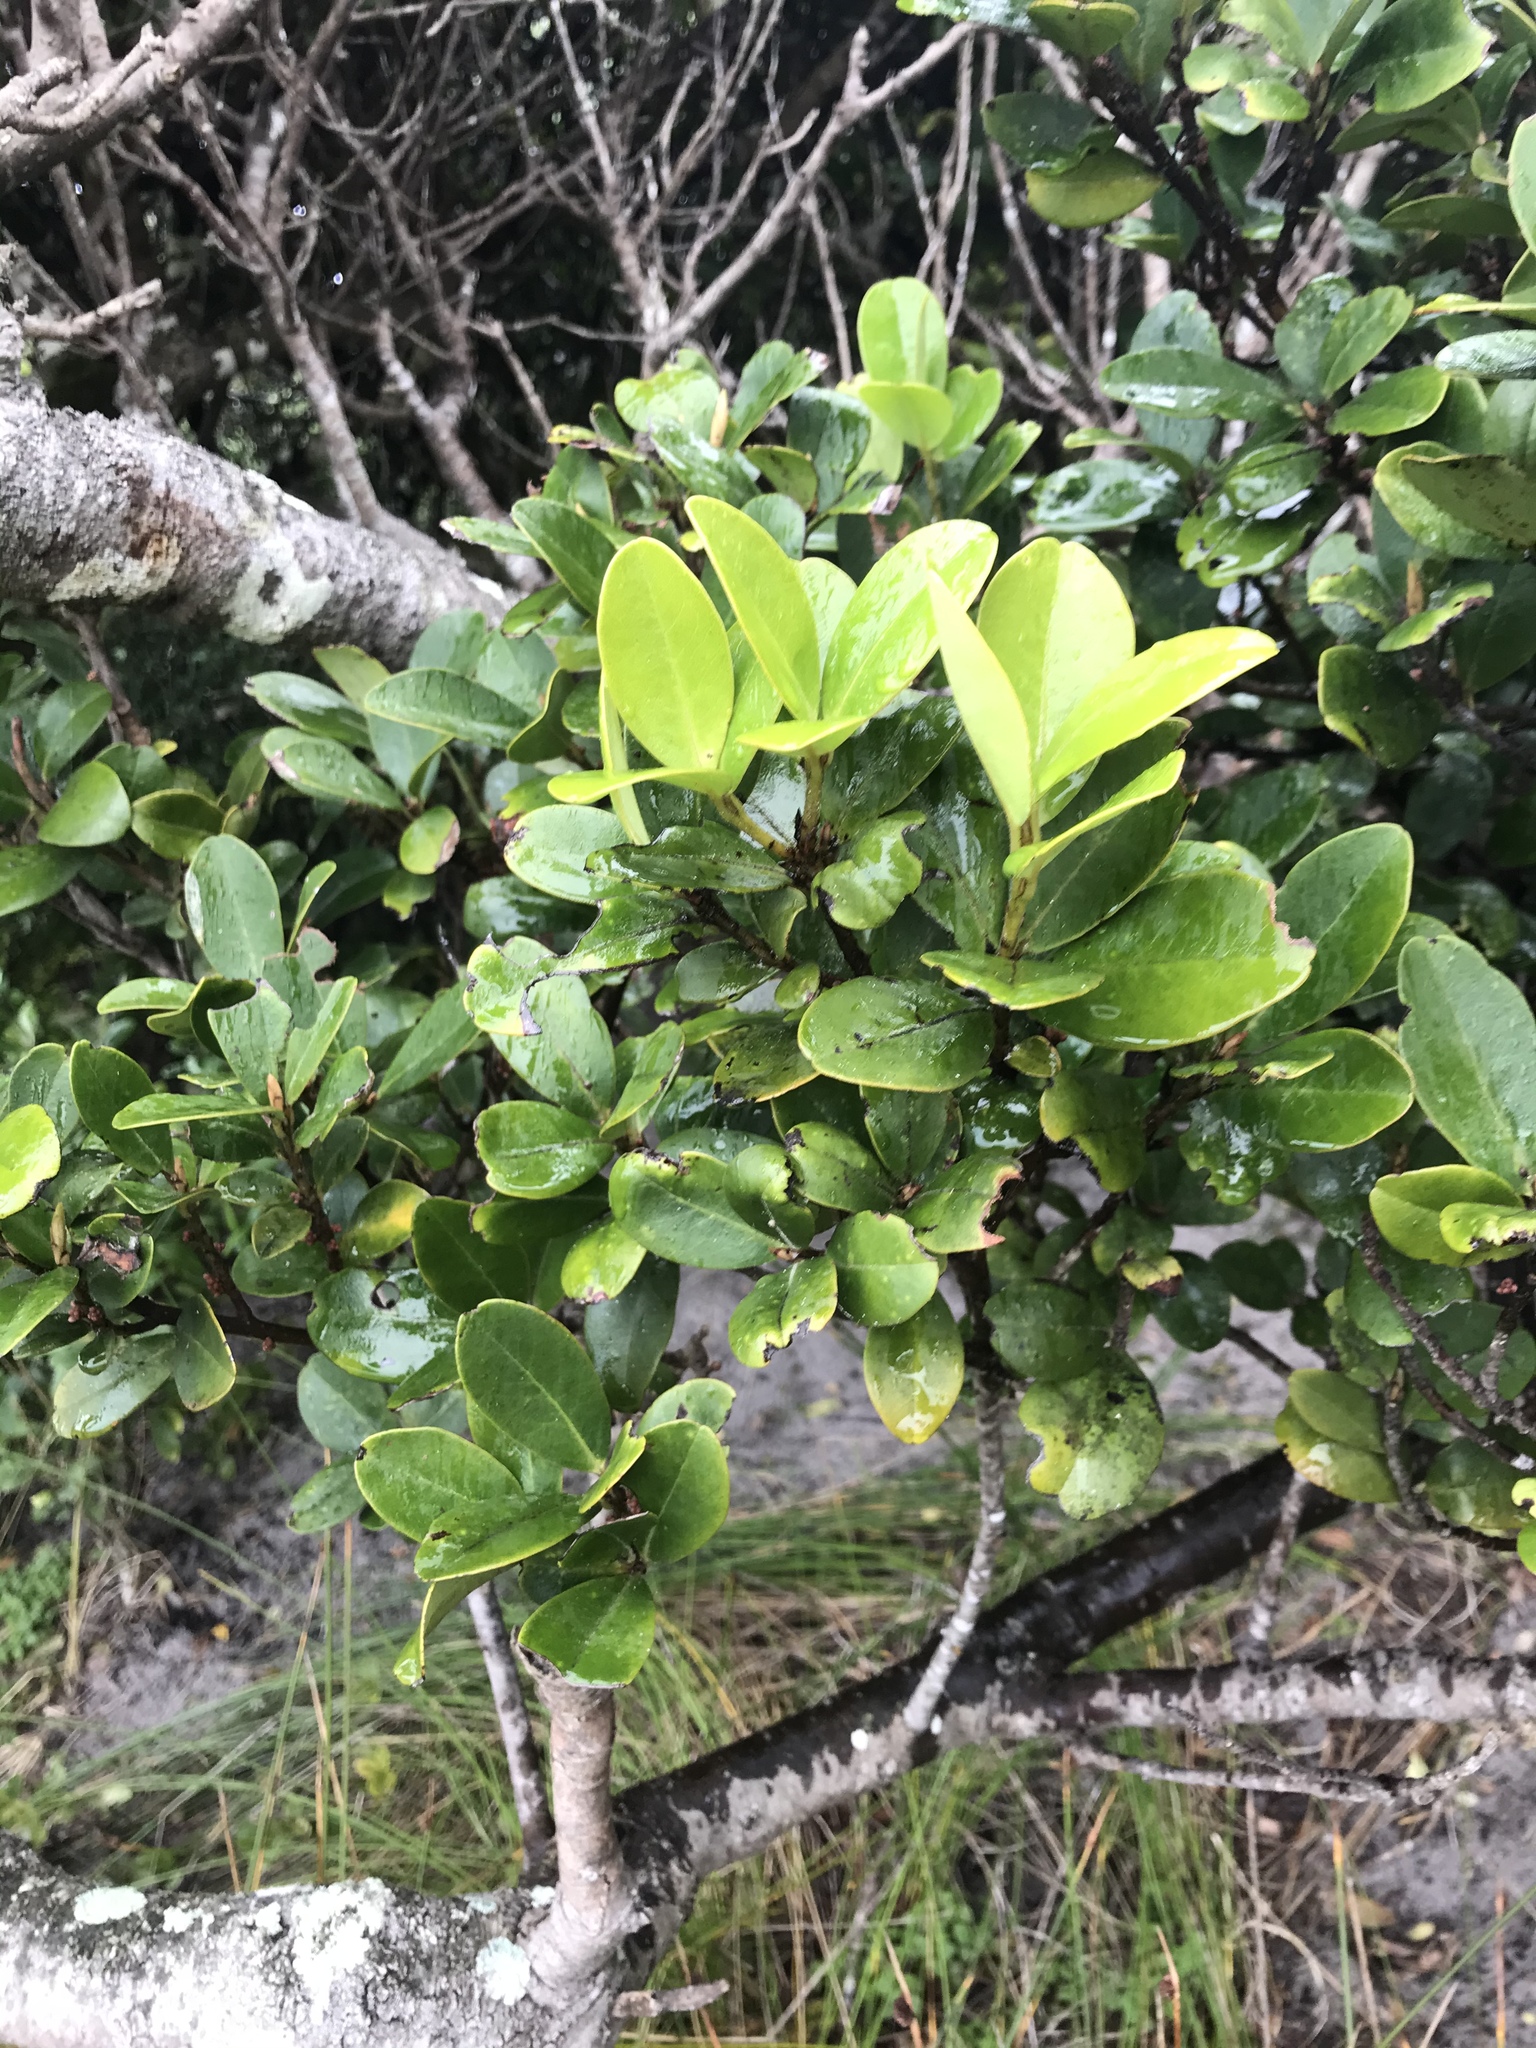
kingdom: Plantae
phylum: Tracheophyta
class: Magnoliopsida
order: Ericales
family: Primulaceae
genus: Myrsine
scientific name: Myrsine chathamica
